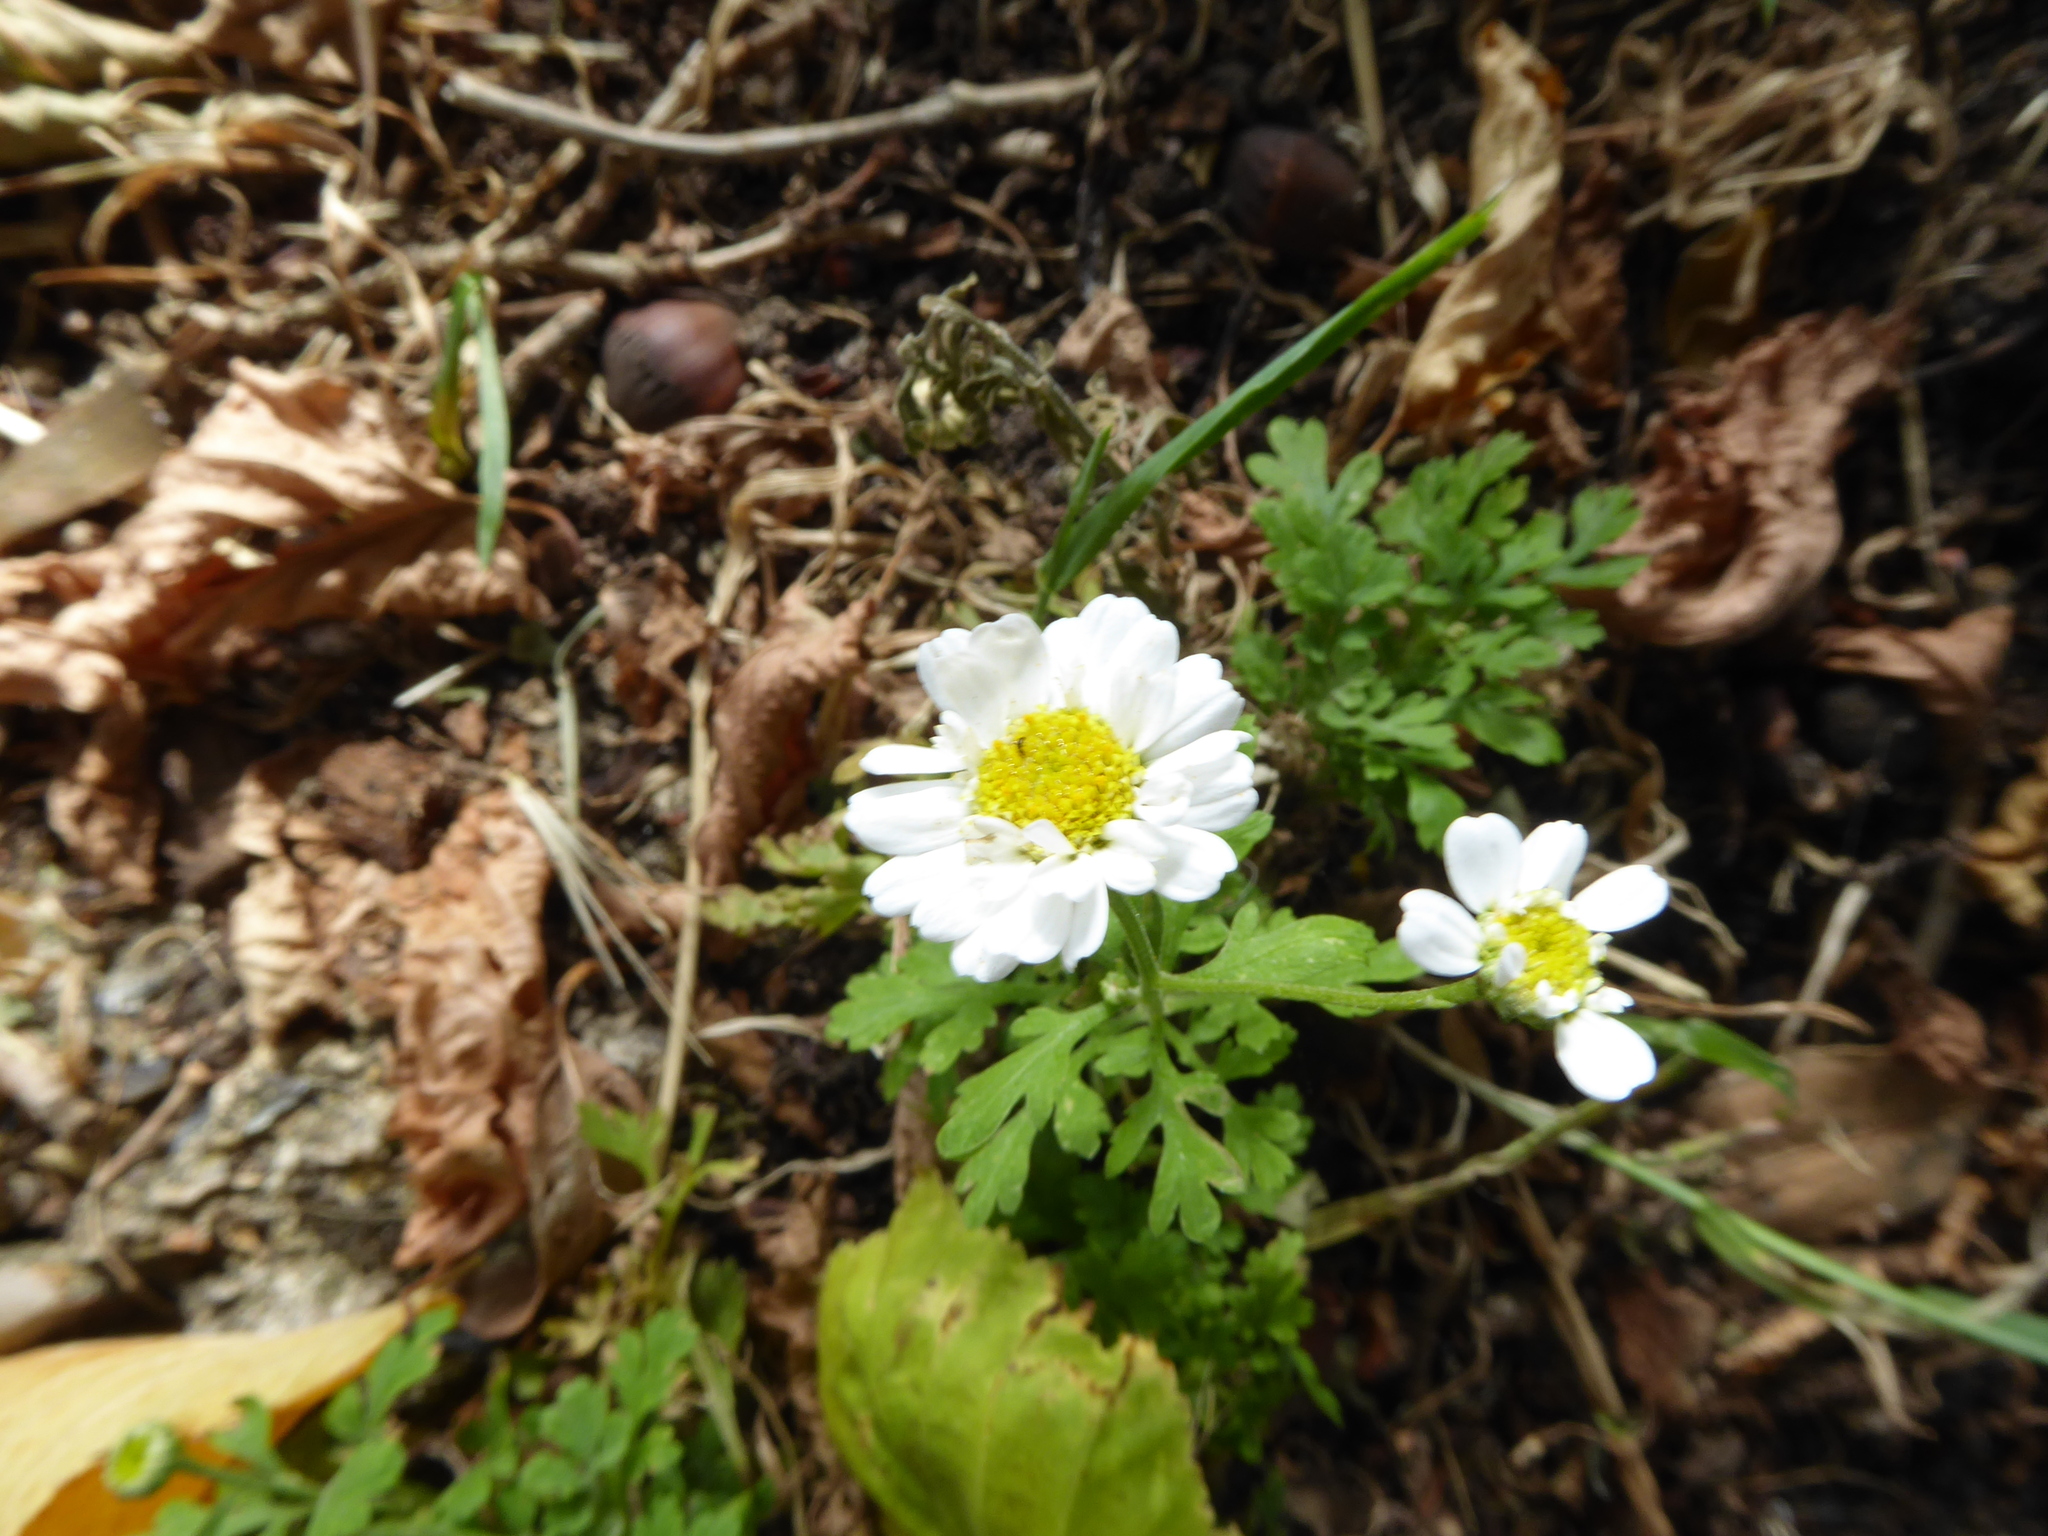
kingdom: Plantae
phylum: Tracheophyta
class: Magnoliopsida
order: Asterales
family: Asteraceae
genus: Tanacetum
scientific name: Tanacetum parthenium
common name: Feverfew
